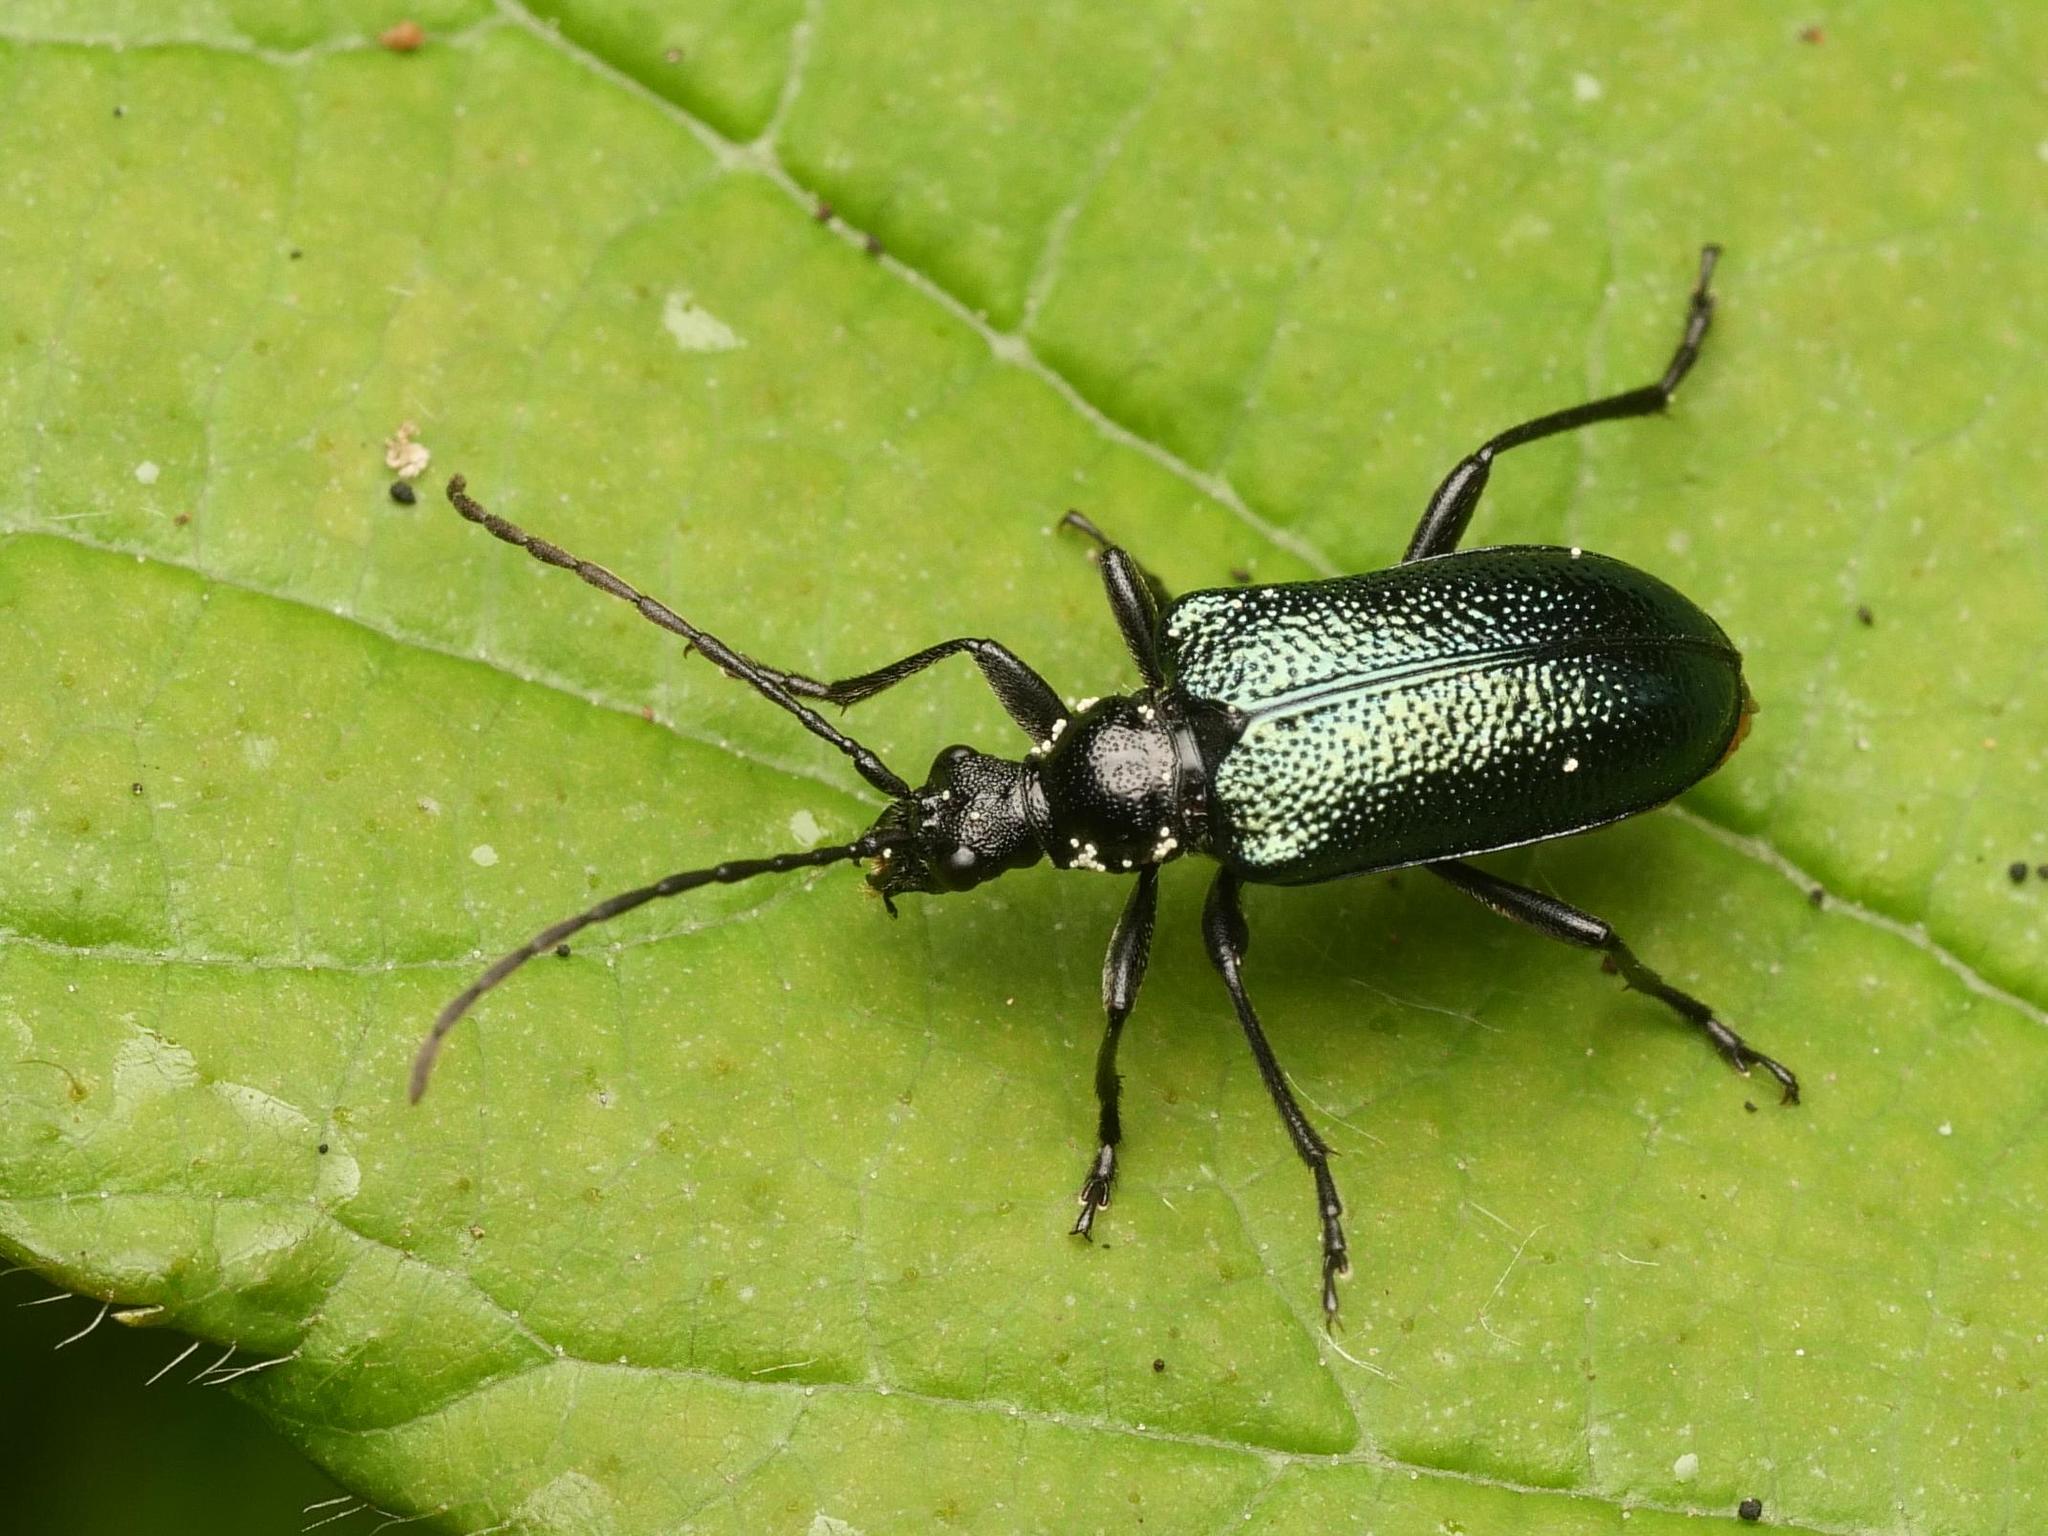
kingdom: Animalia
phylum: Arthropoda
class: Insecta
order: Coleoptera
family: Cerambycidae
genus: Gaurotes
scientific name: Gaurotes virginea
